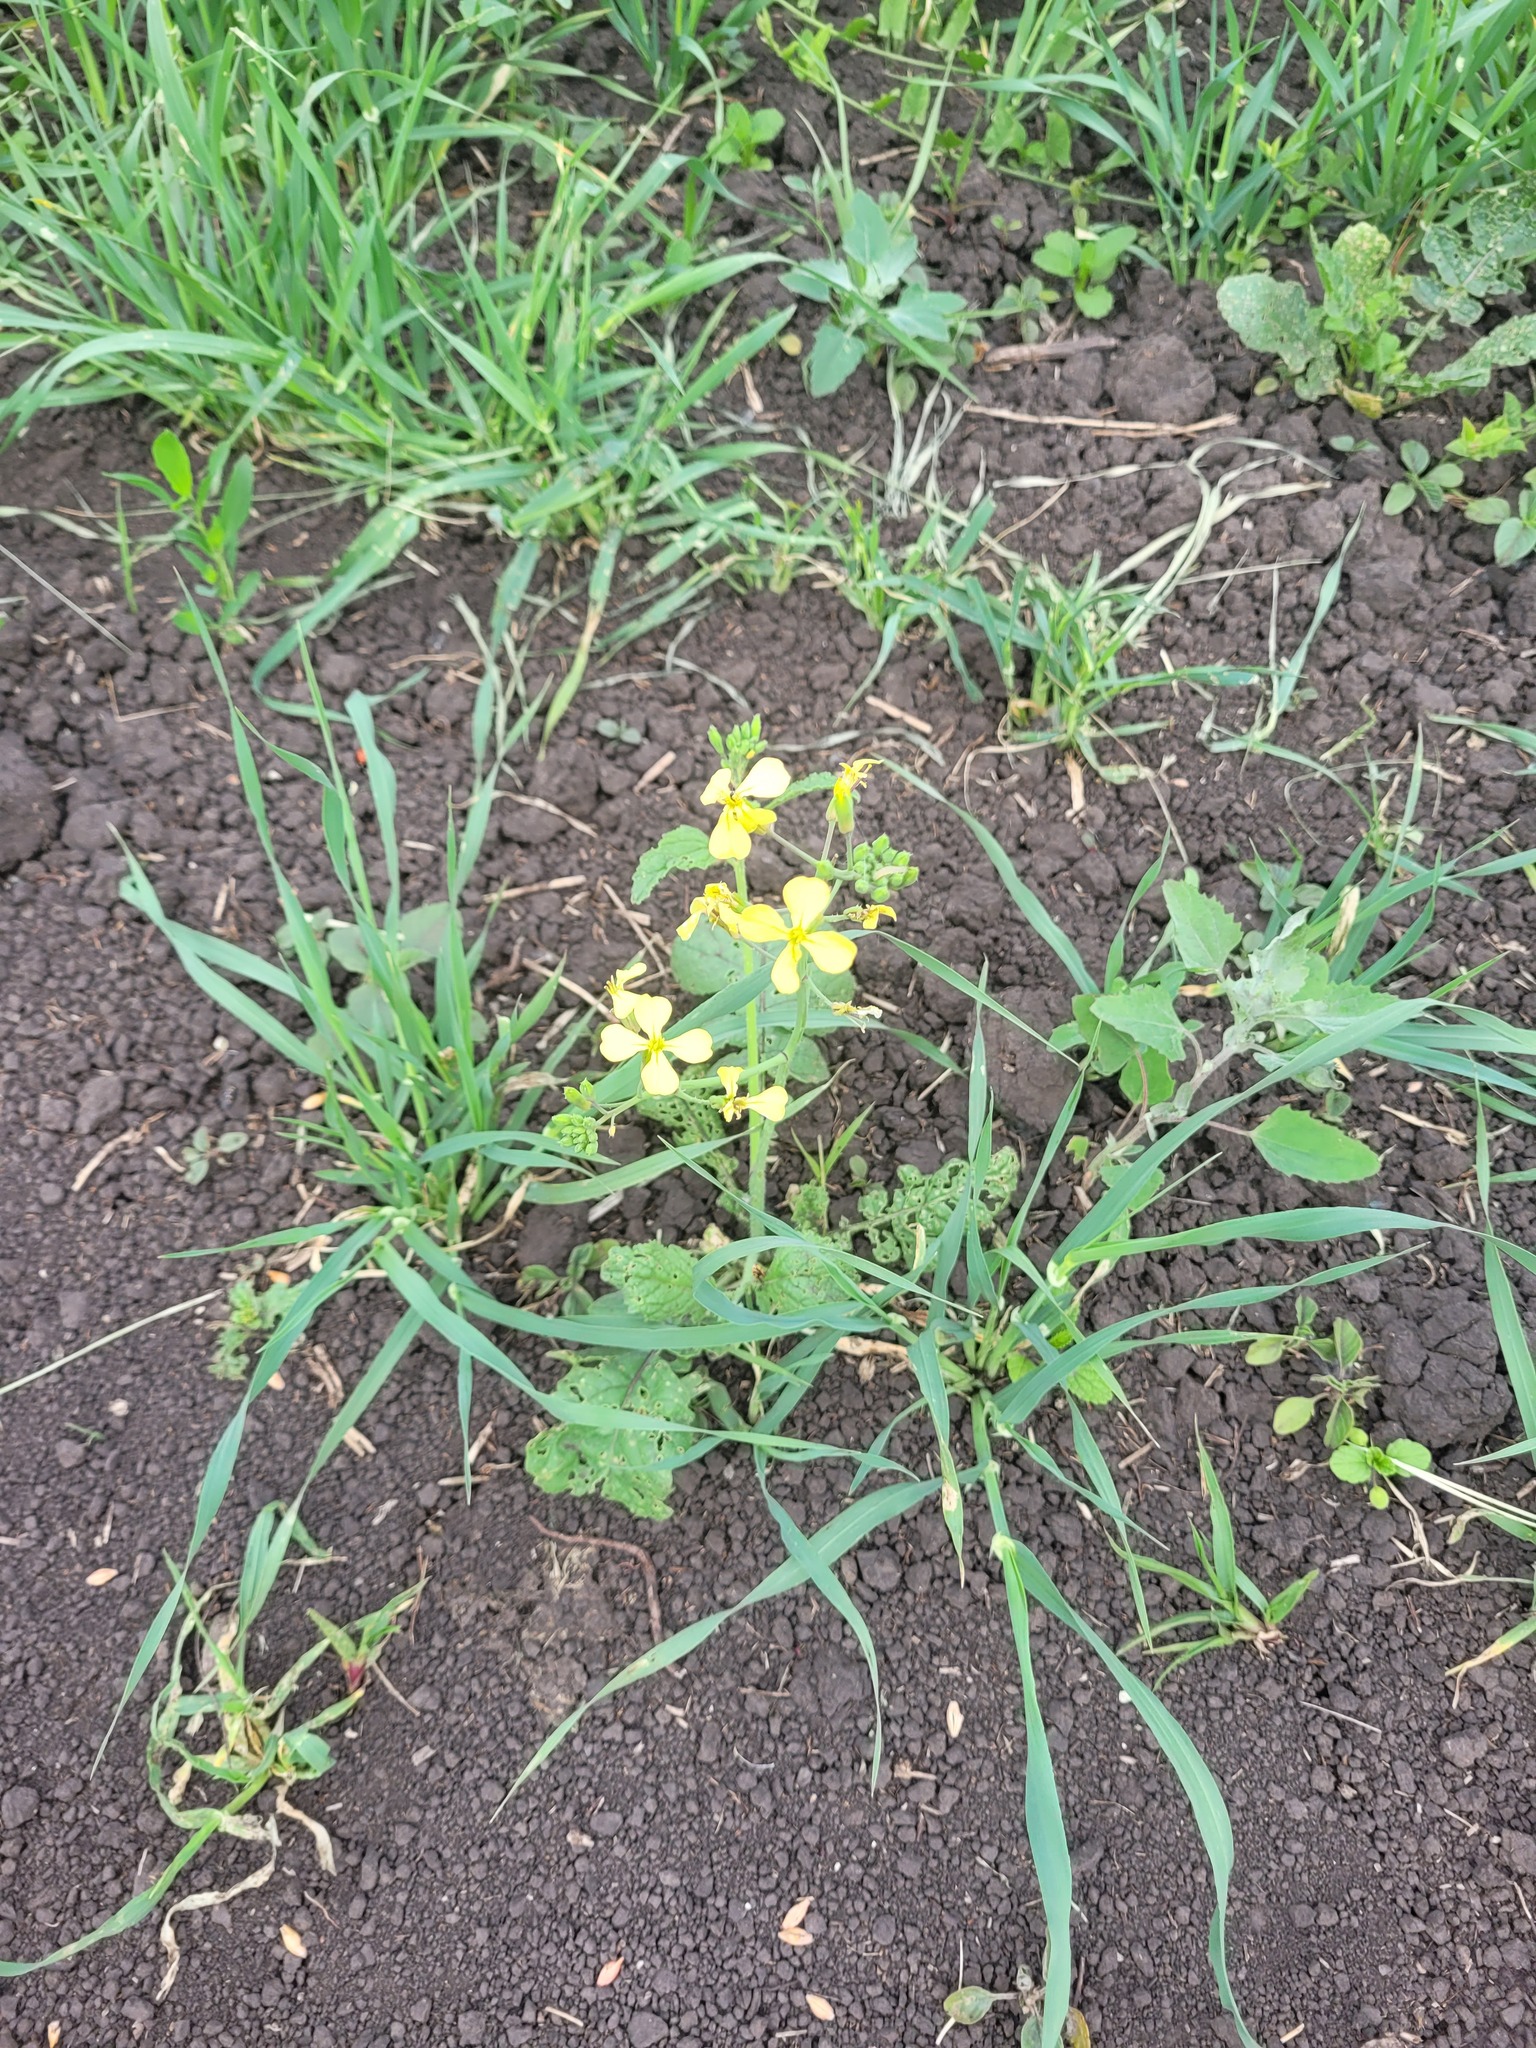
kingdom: Plantae
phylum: Tracheophyta
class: Magnoliopsida
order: Brassicales
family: Brassicaceae
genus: Raphanus
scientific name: Raphanus raphanistrum
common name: Wild radish
